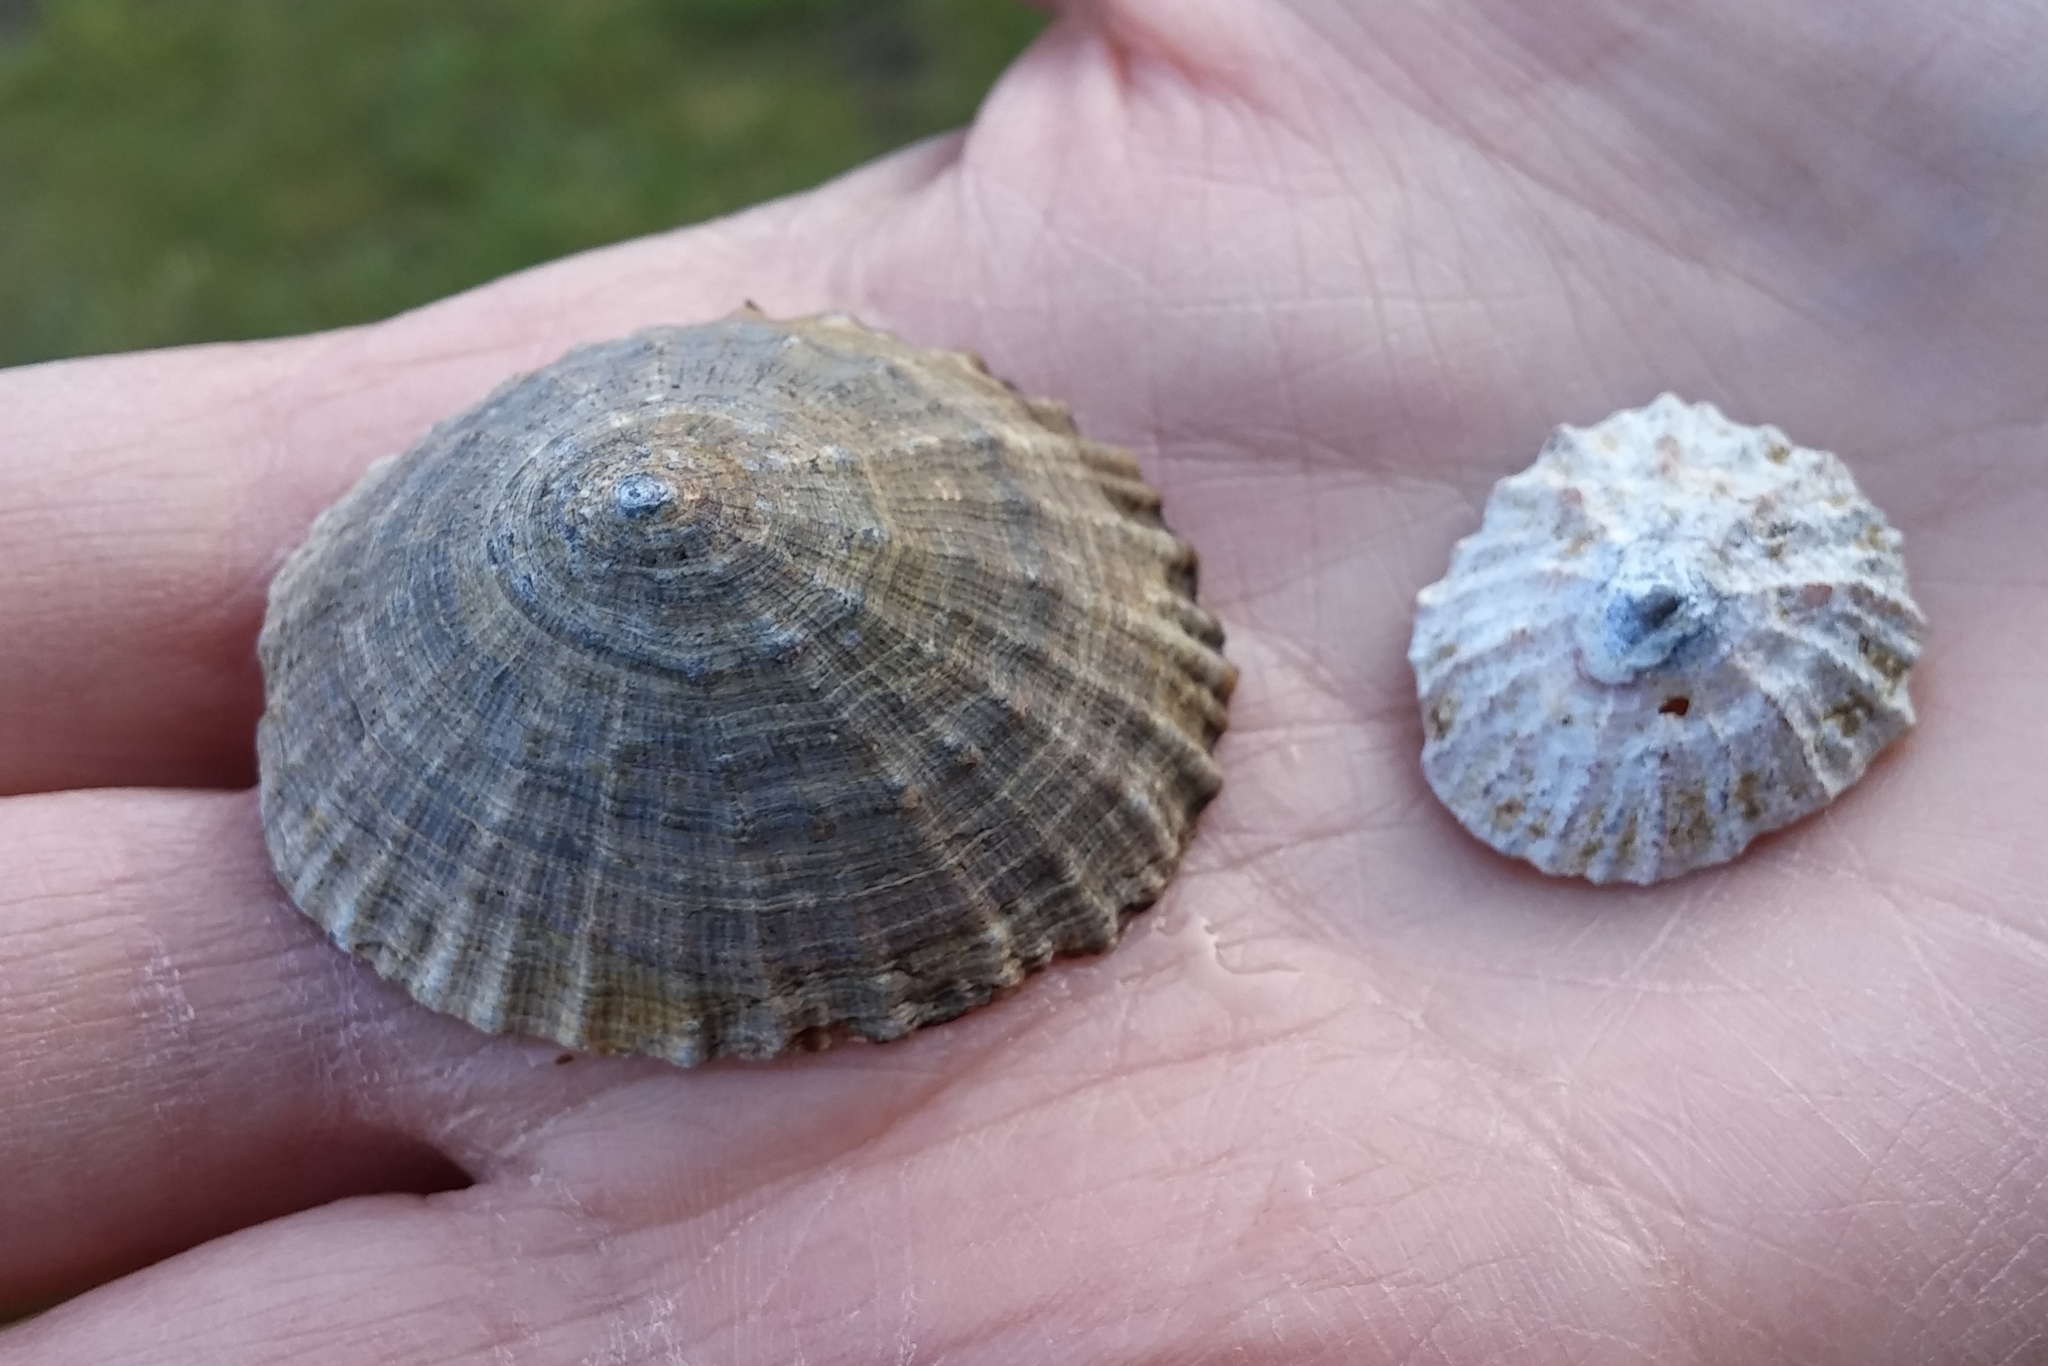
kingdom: Animalia
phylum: Mollusca
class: Gastropoda
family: Patellidae
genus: Patella
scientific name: Patella vulgata
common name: Common limpet
